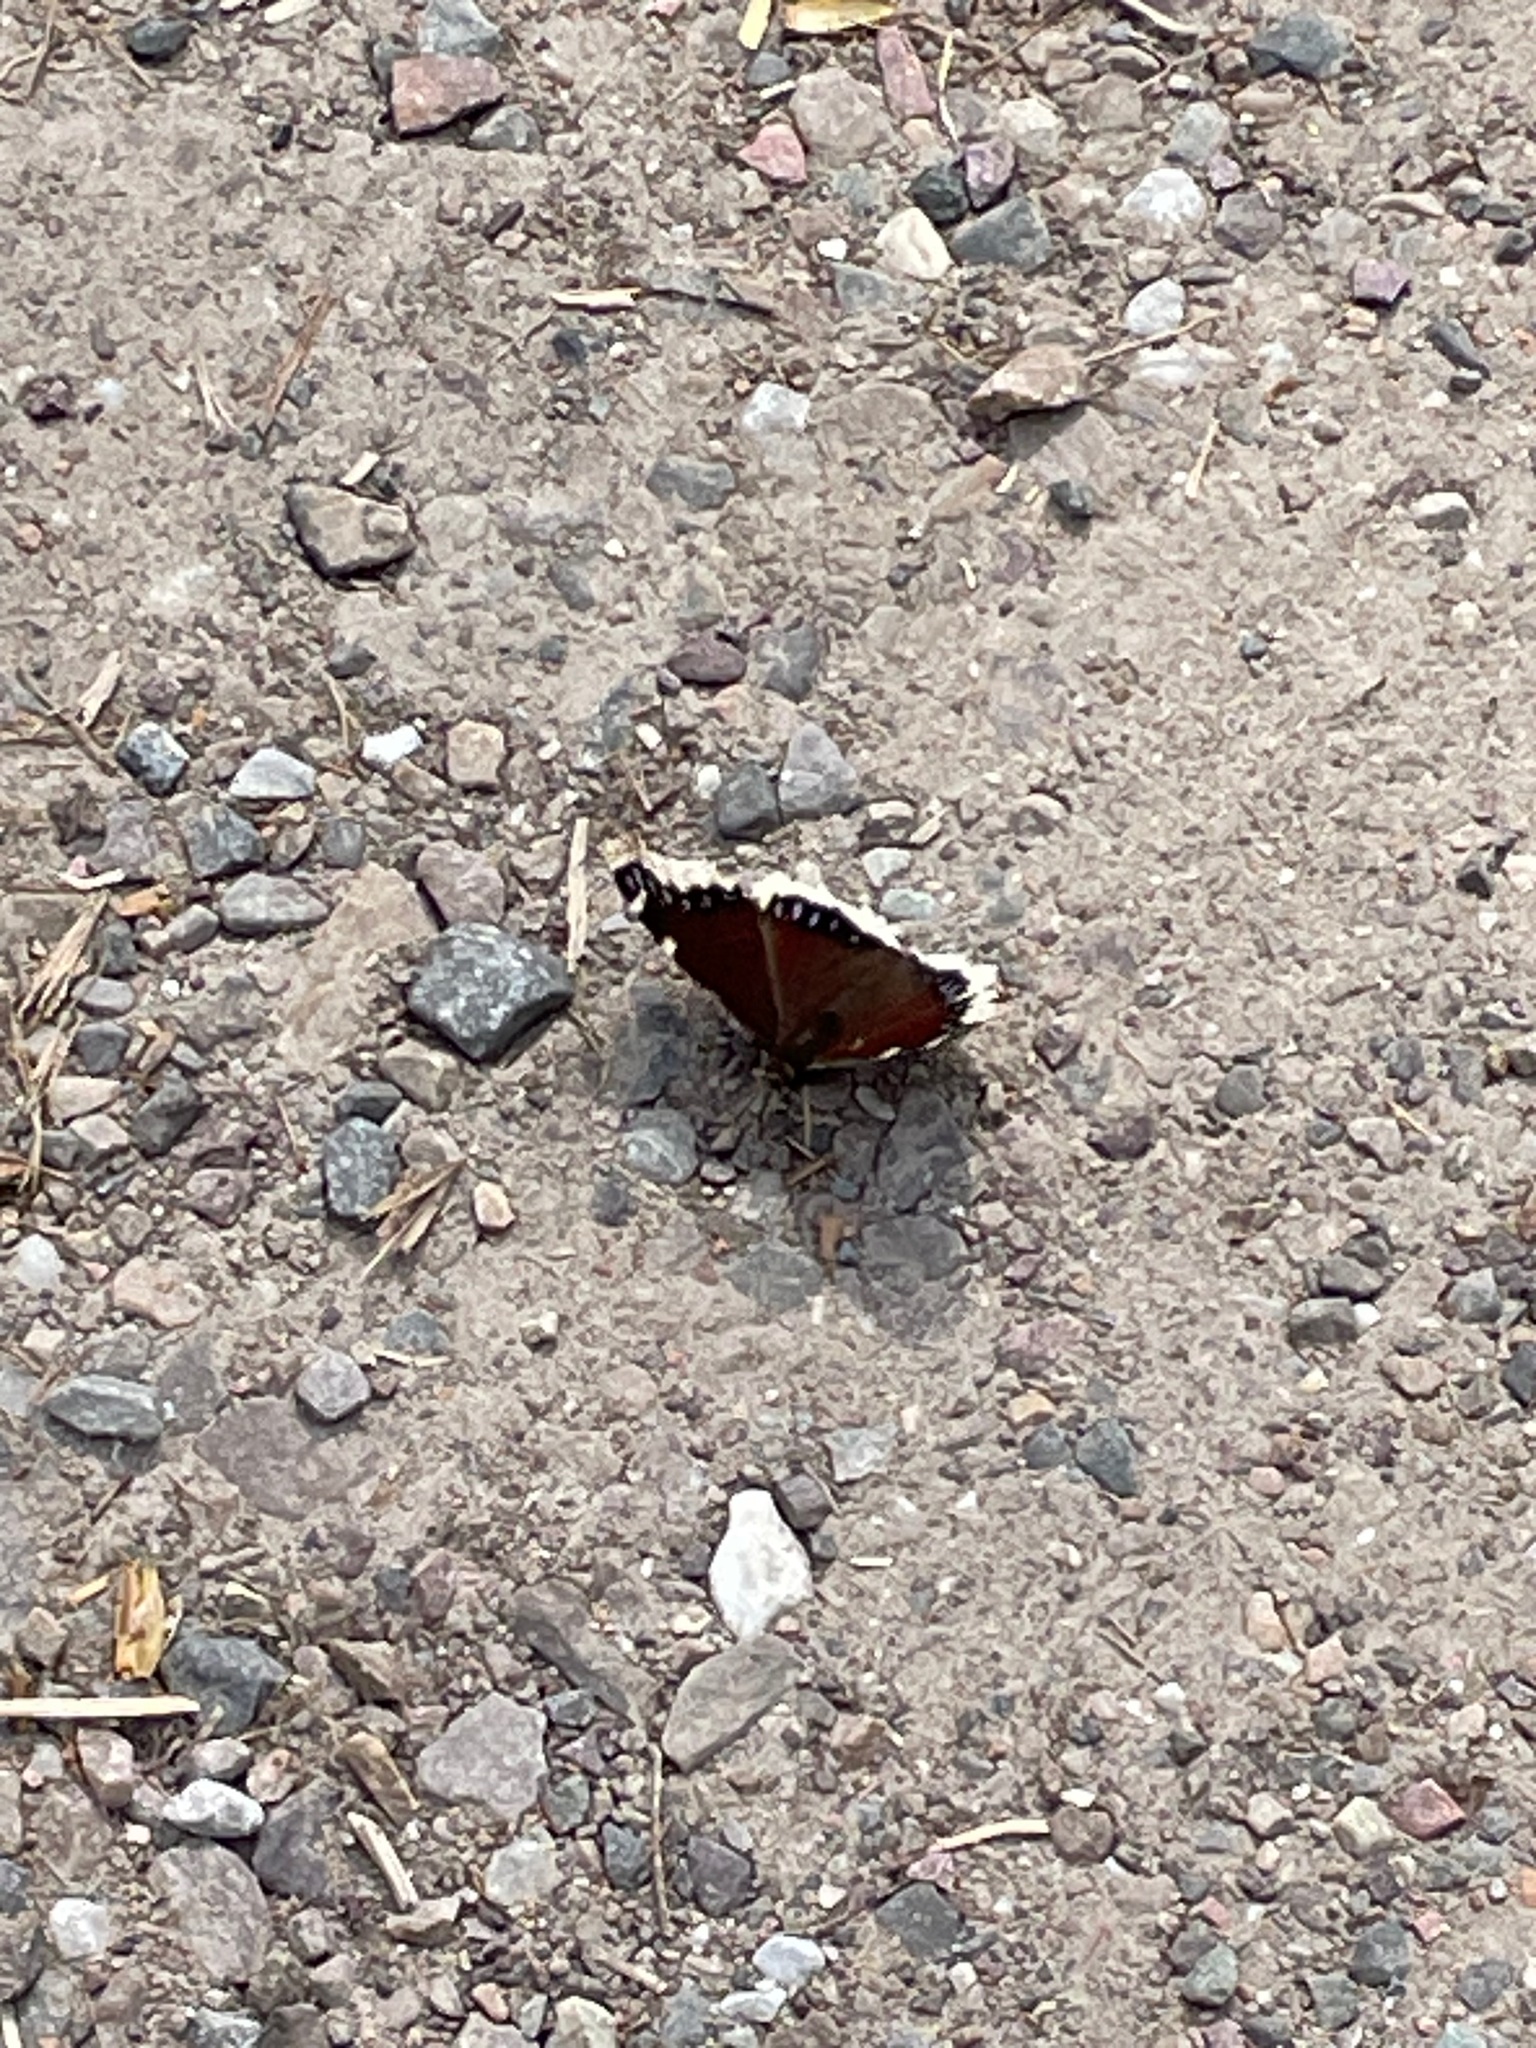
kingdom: Animalia
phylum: Arthropoda
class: Insecta
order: Lepidoptera
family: Nymphalidae
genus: Nymphalis
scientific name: Nymphalis antiopa
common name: Camberwell beauty
